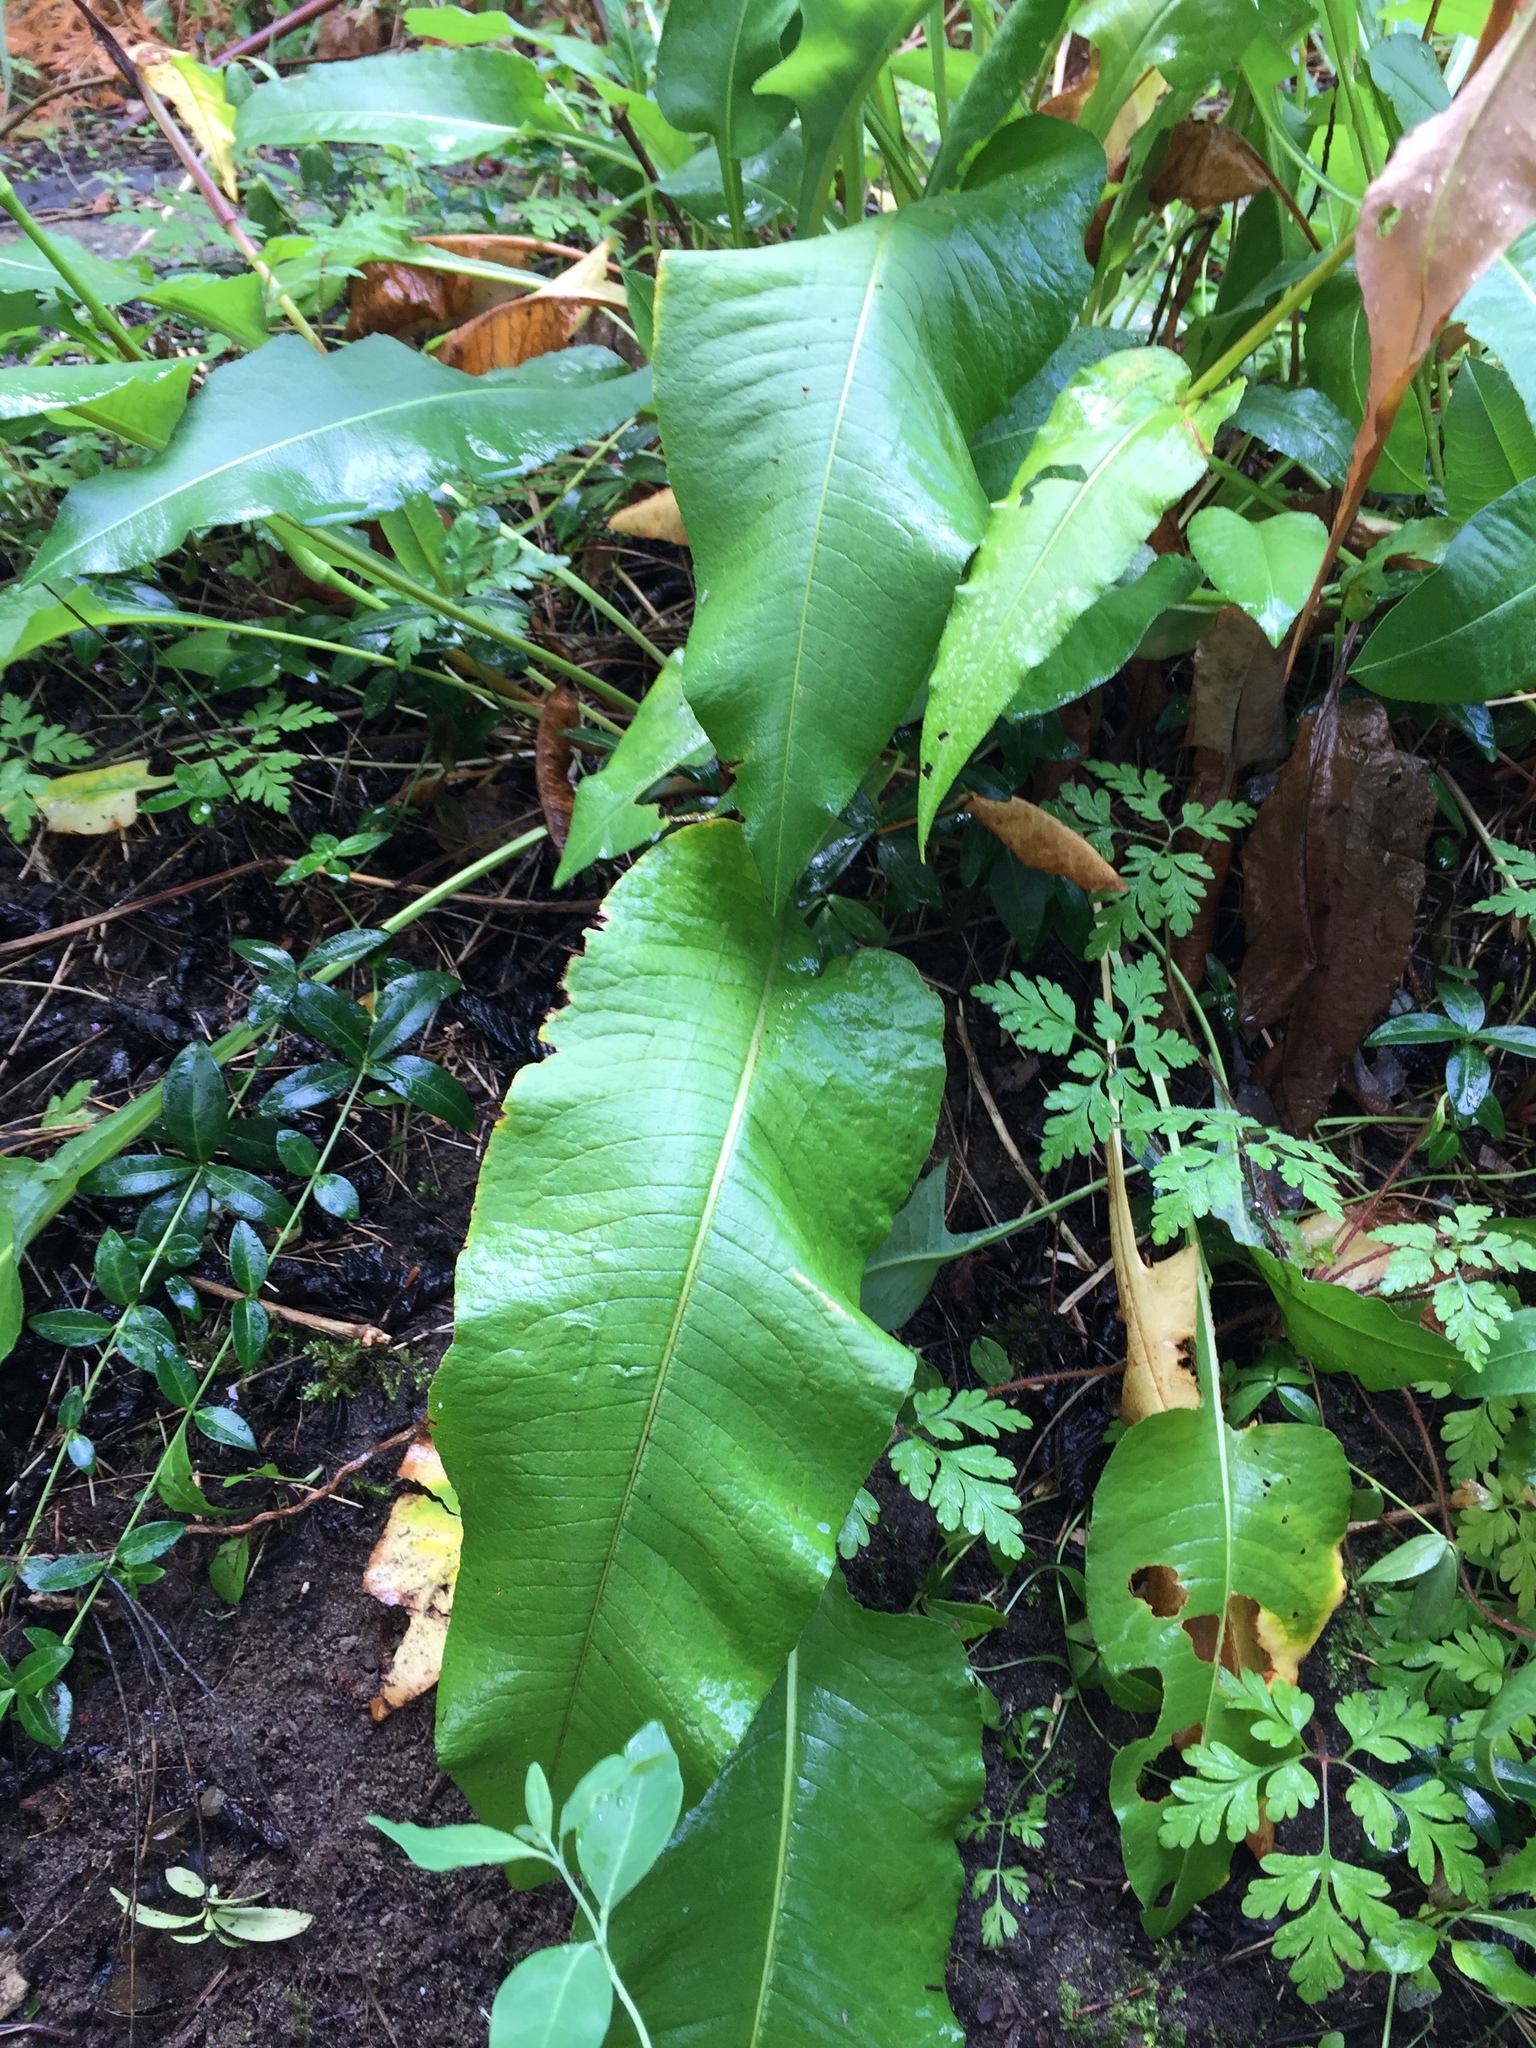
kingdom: Plantae
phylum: Tracheophyta
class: Magnoliopsida
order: Caryophyllales
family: Polygonaceae
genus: Bistorta
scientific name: Bistorta officinalis
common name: Common bistort
